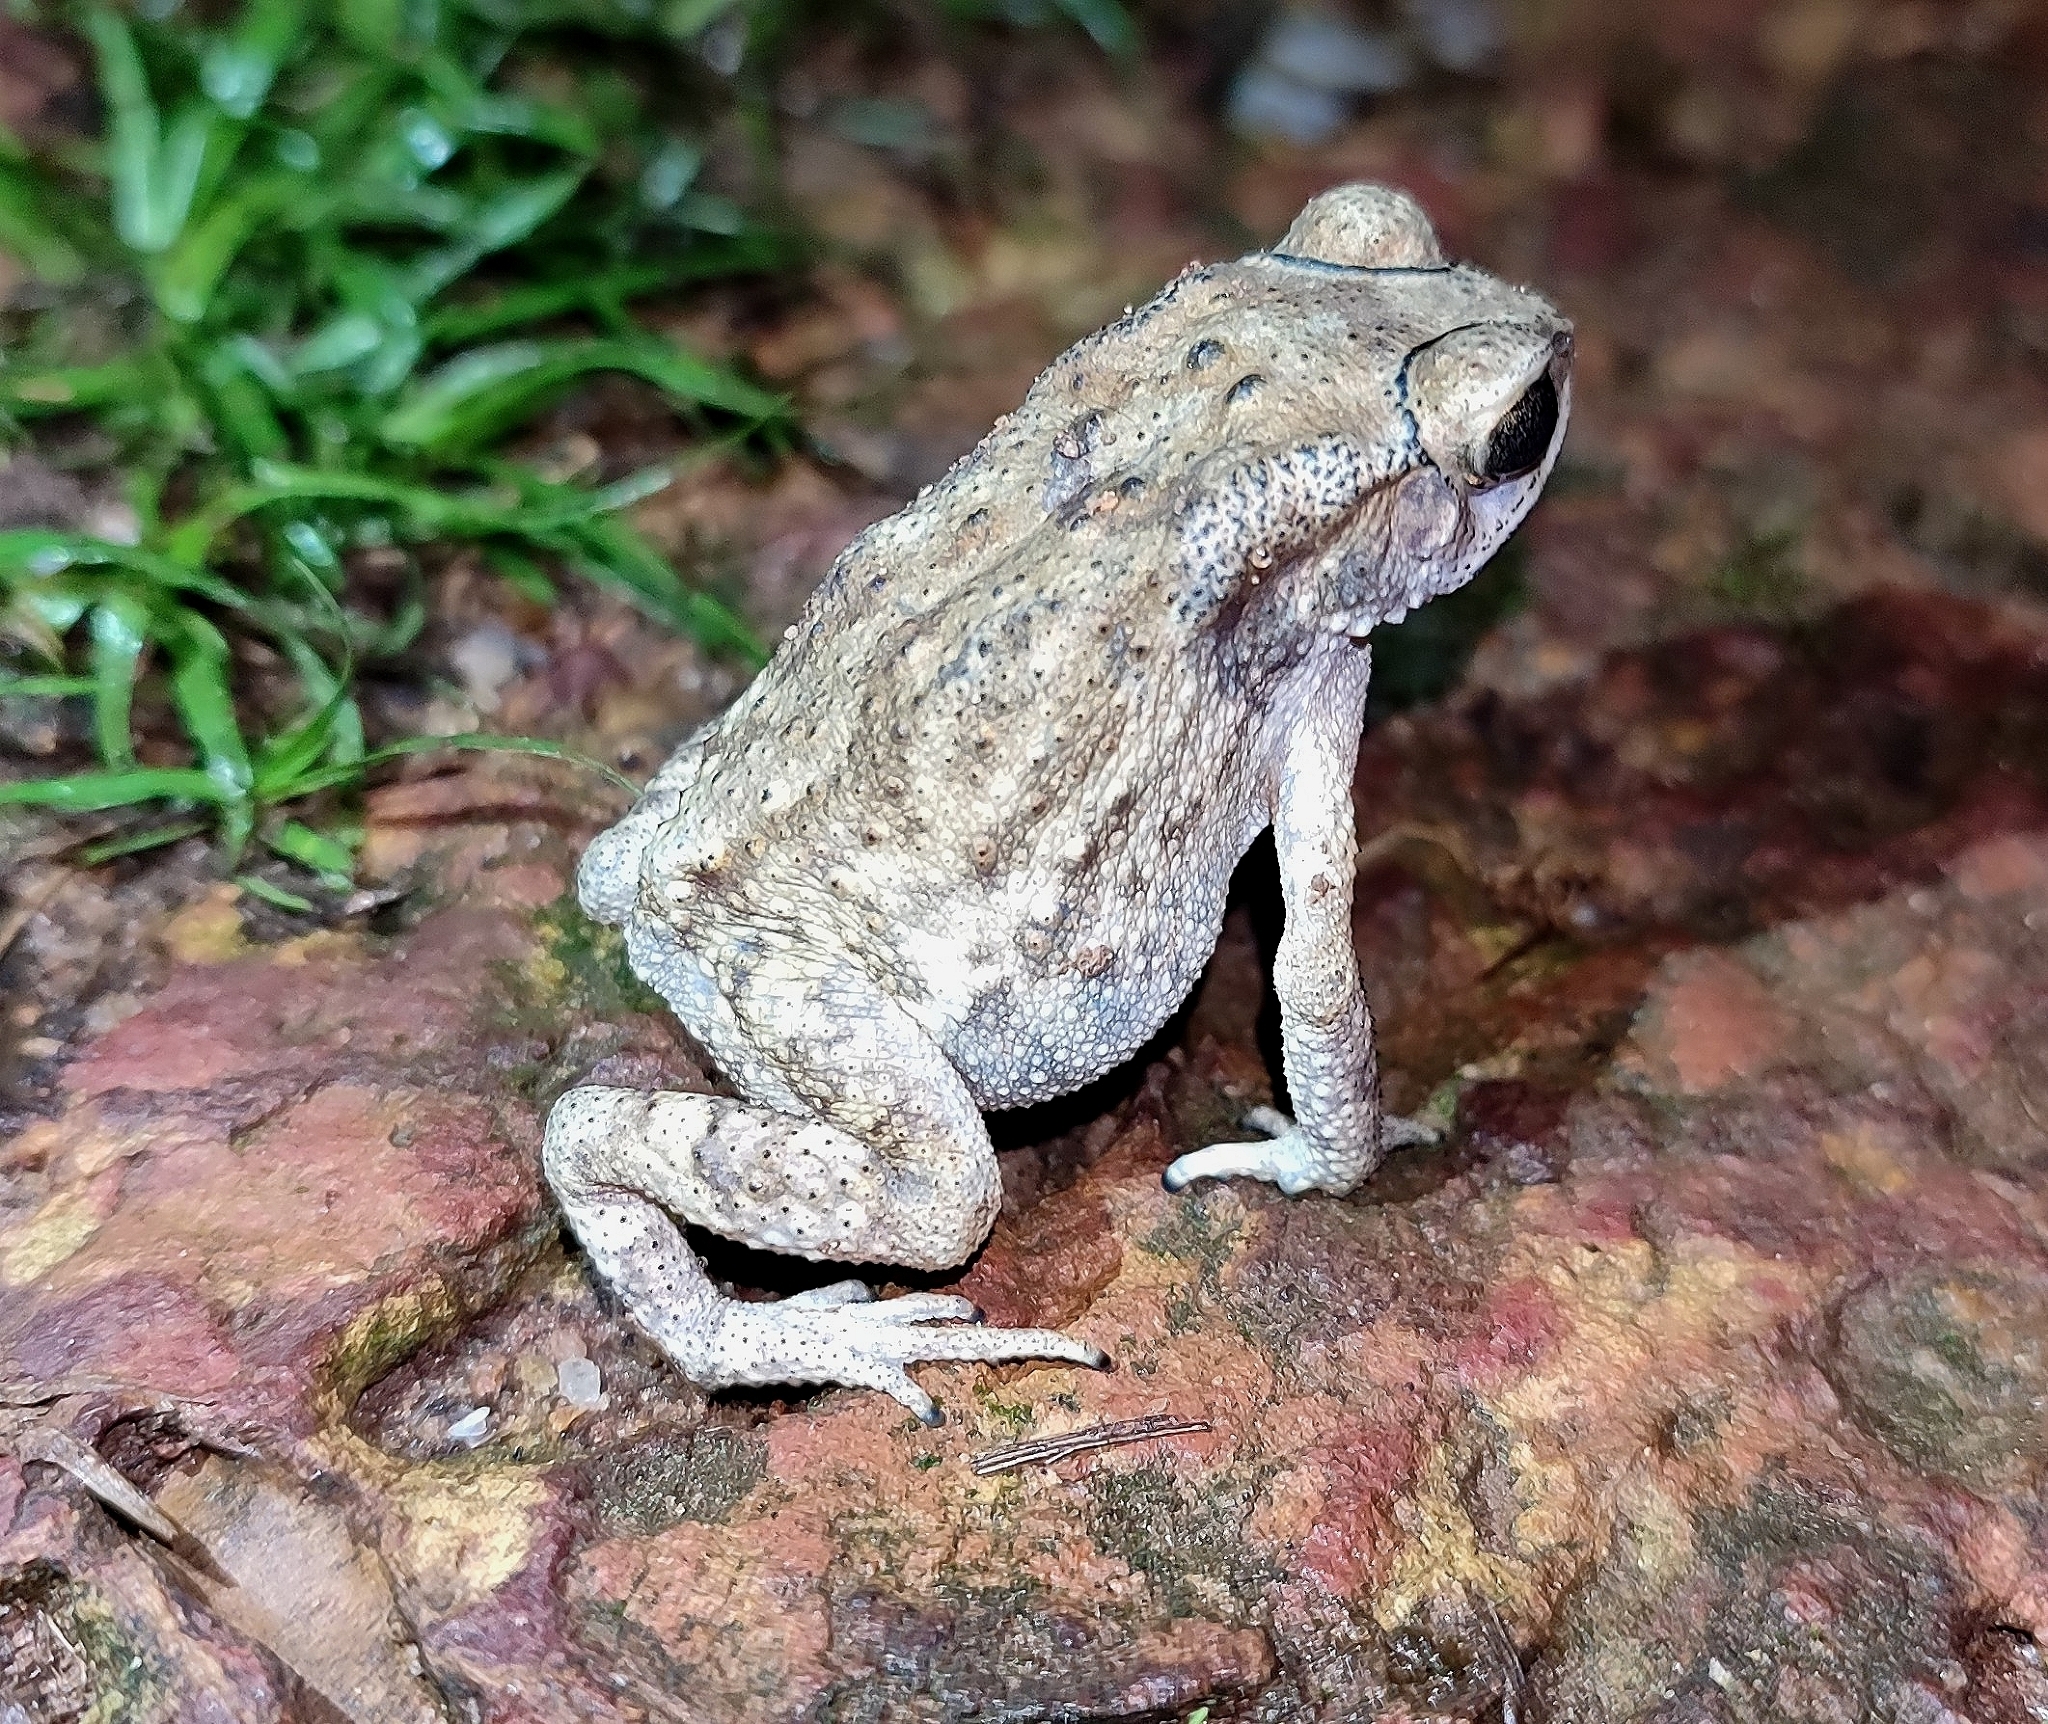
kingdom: Animalia
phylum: Chordata
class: Amphibia
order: Anura
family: Bufonidae
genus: Duttaphrynus
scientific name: Duttaphrynus melanostictus
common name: Common sunda toad
